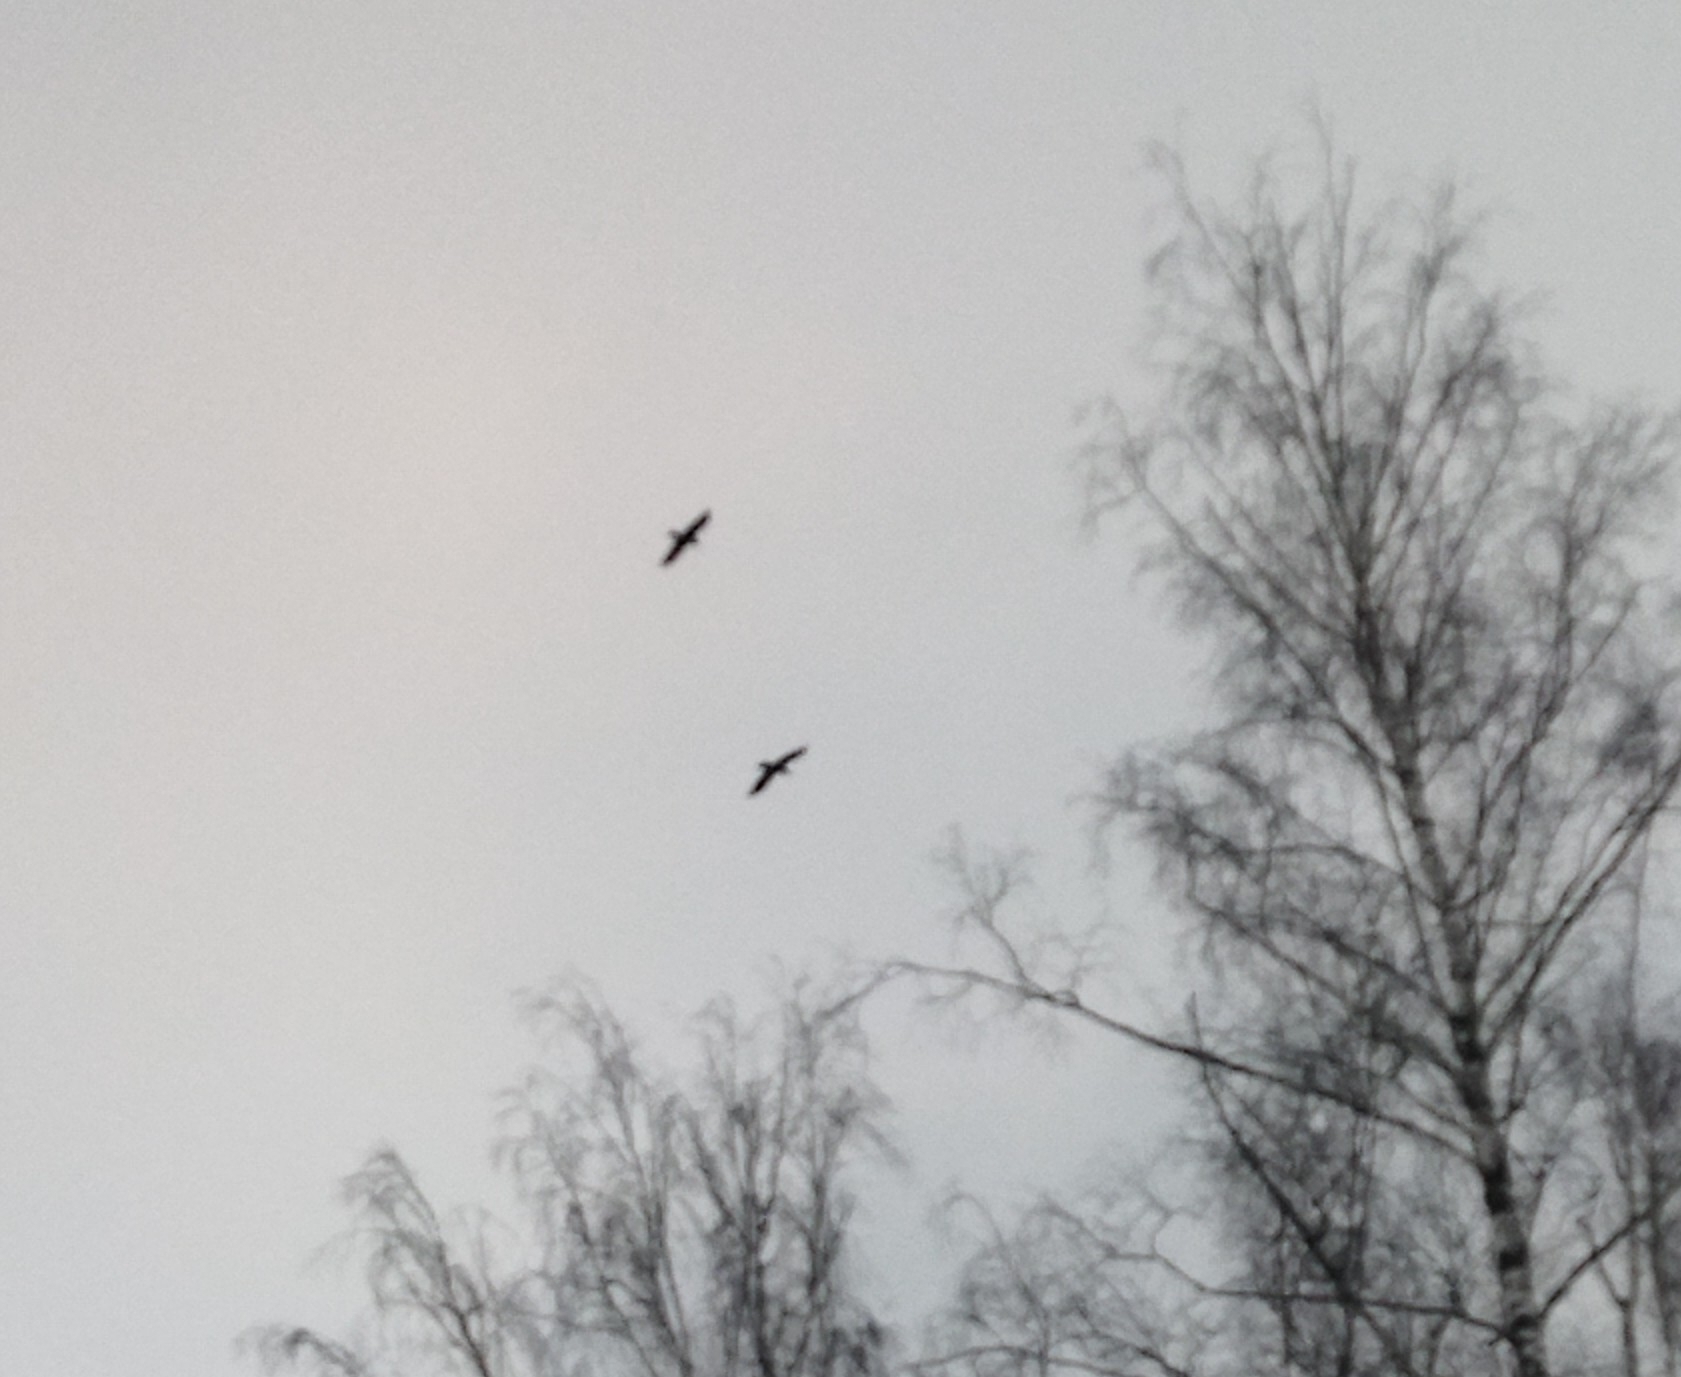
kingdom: Animalia
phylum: Chordata
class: Aves
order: Passeriformes
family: Corvidae
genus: Corvus
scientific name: Corvus corax
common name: Common raven
